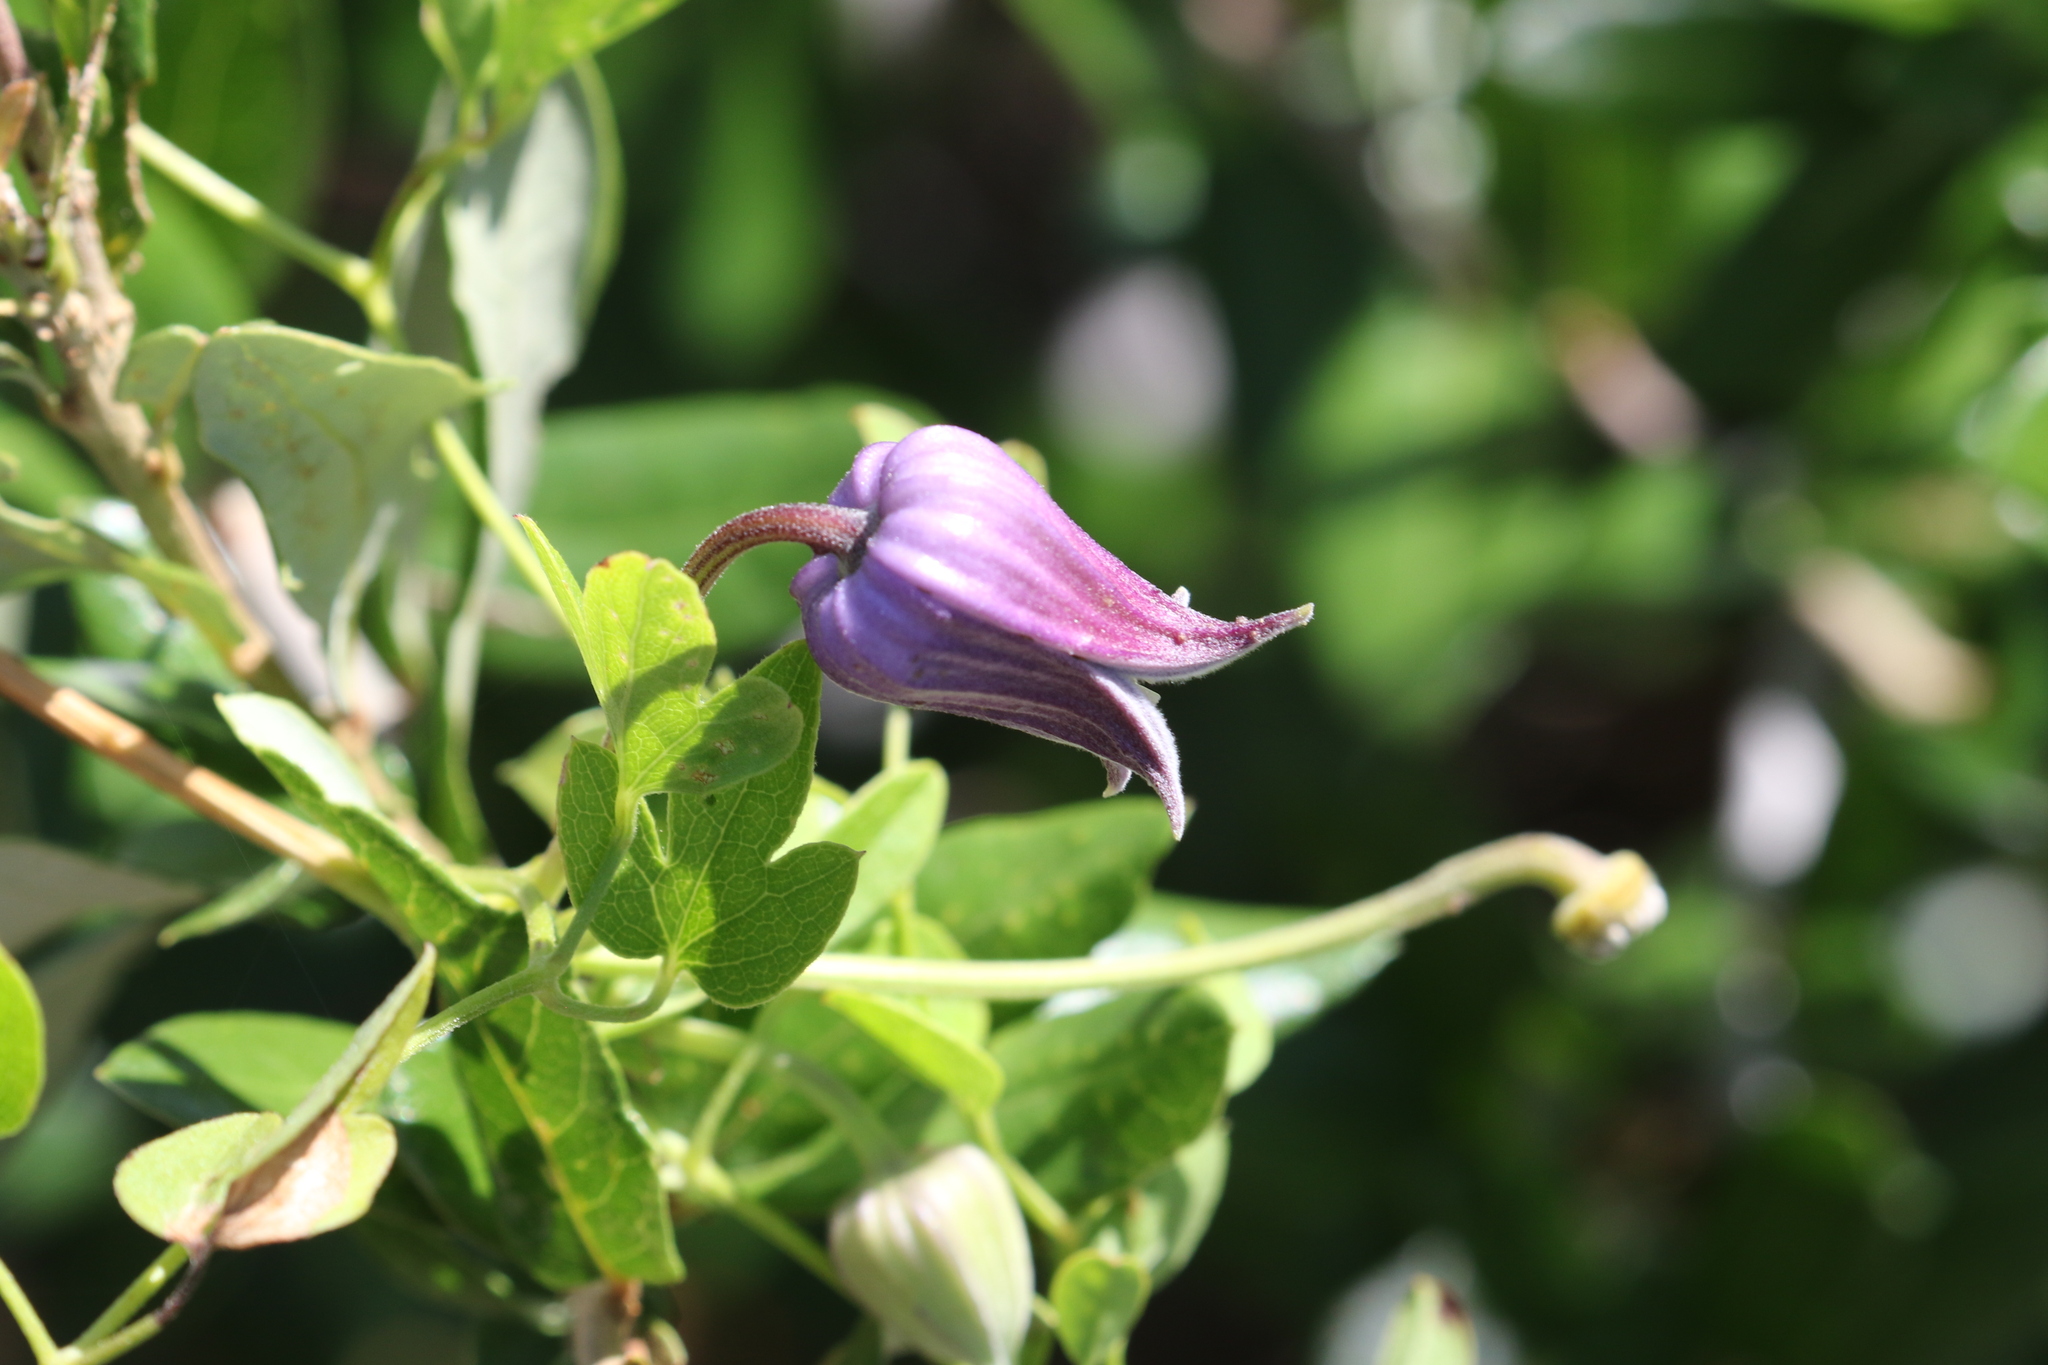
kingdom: Plantae
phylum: Tracheophyta
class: Magnoliopsida
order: Ranunculales
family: Ranunculaceae
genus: Clematis
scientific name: Clematis pitcheri
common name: Bellflower clematis
